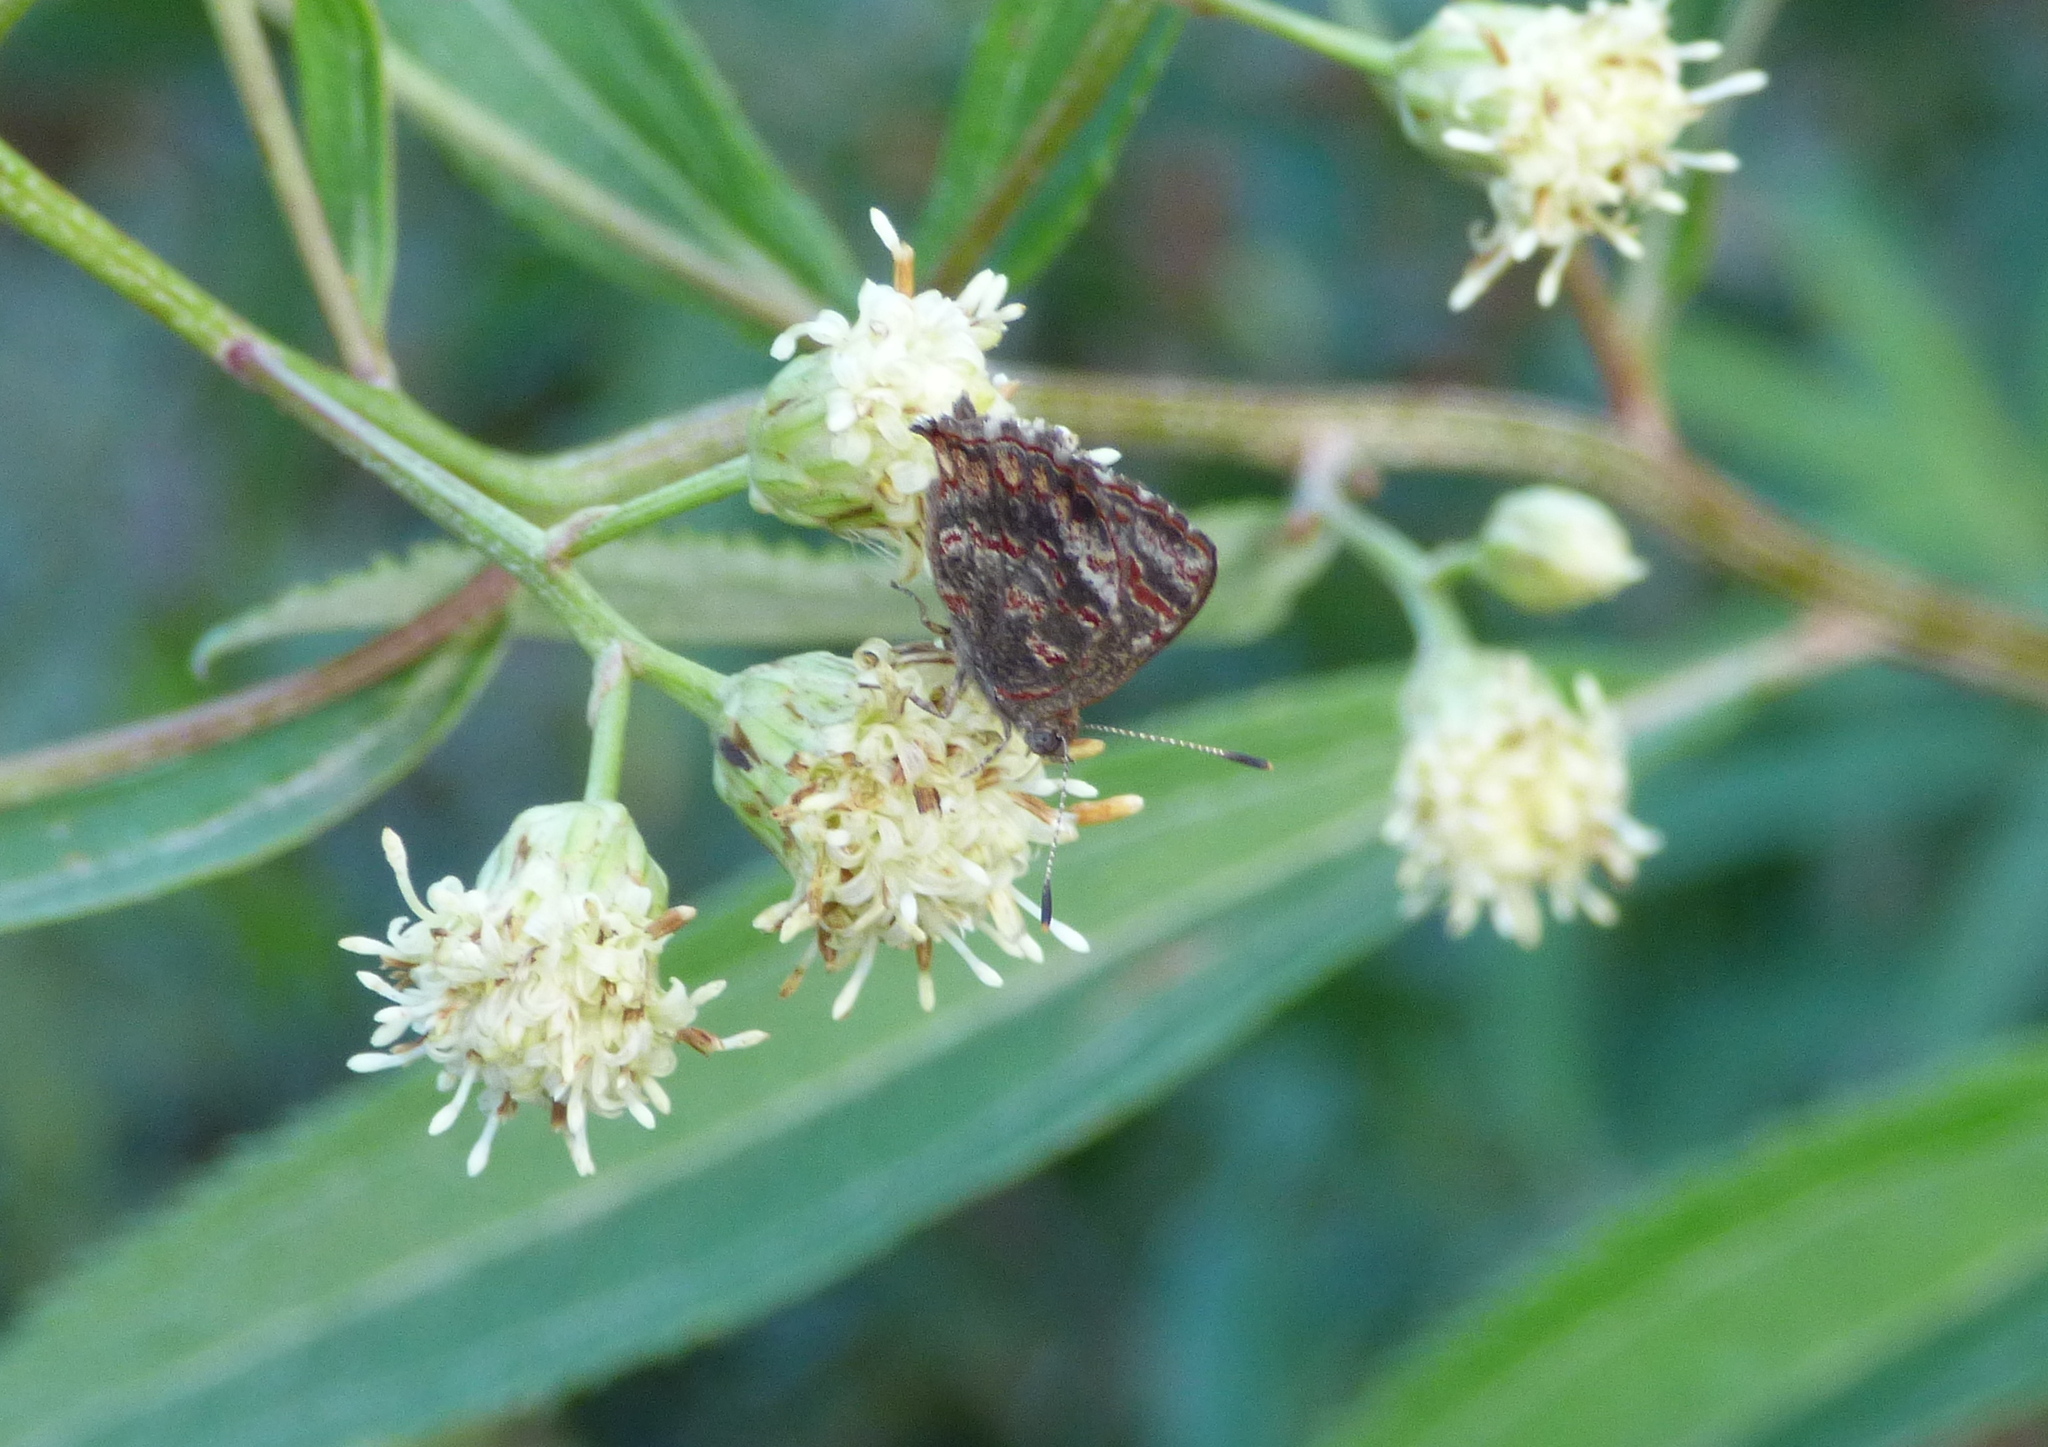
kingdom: Animalia
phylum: Arthropoda
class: Insecta
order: Lepidoptera
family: Lycaenidae
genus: Ministrymon
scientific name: Ministrymon
